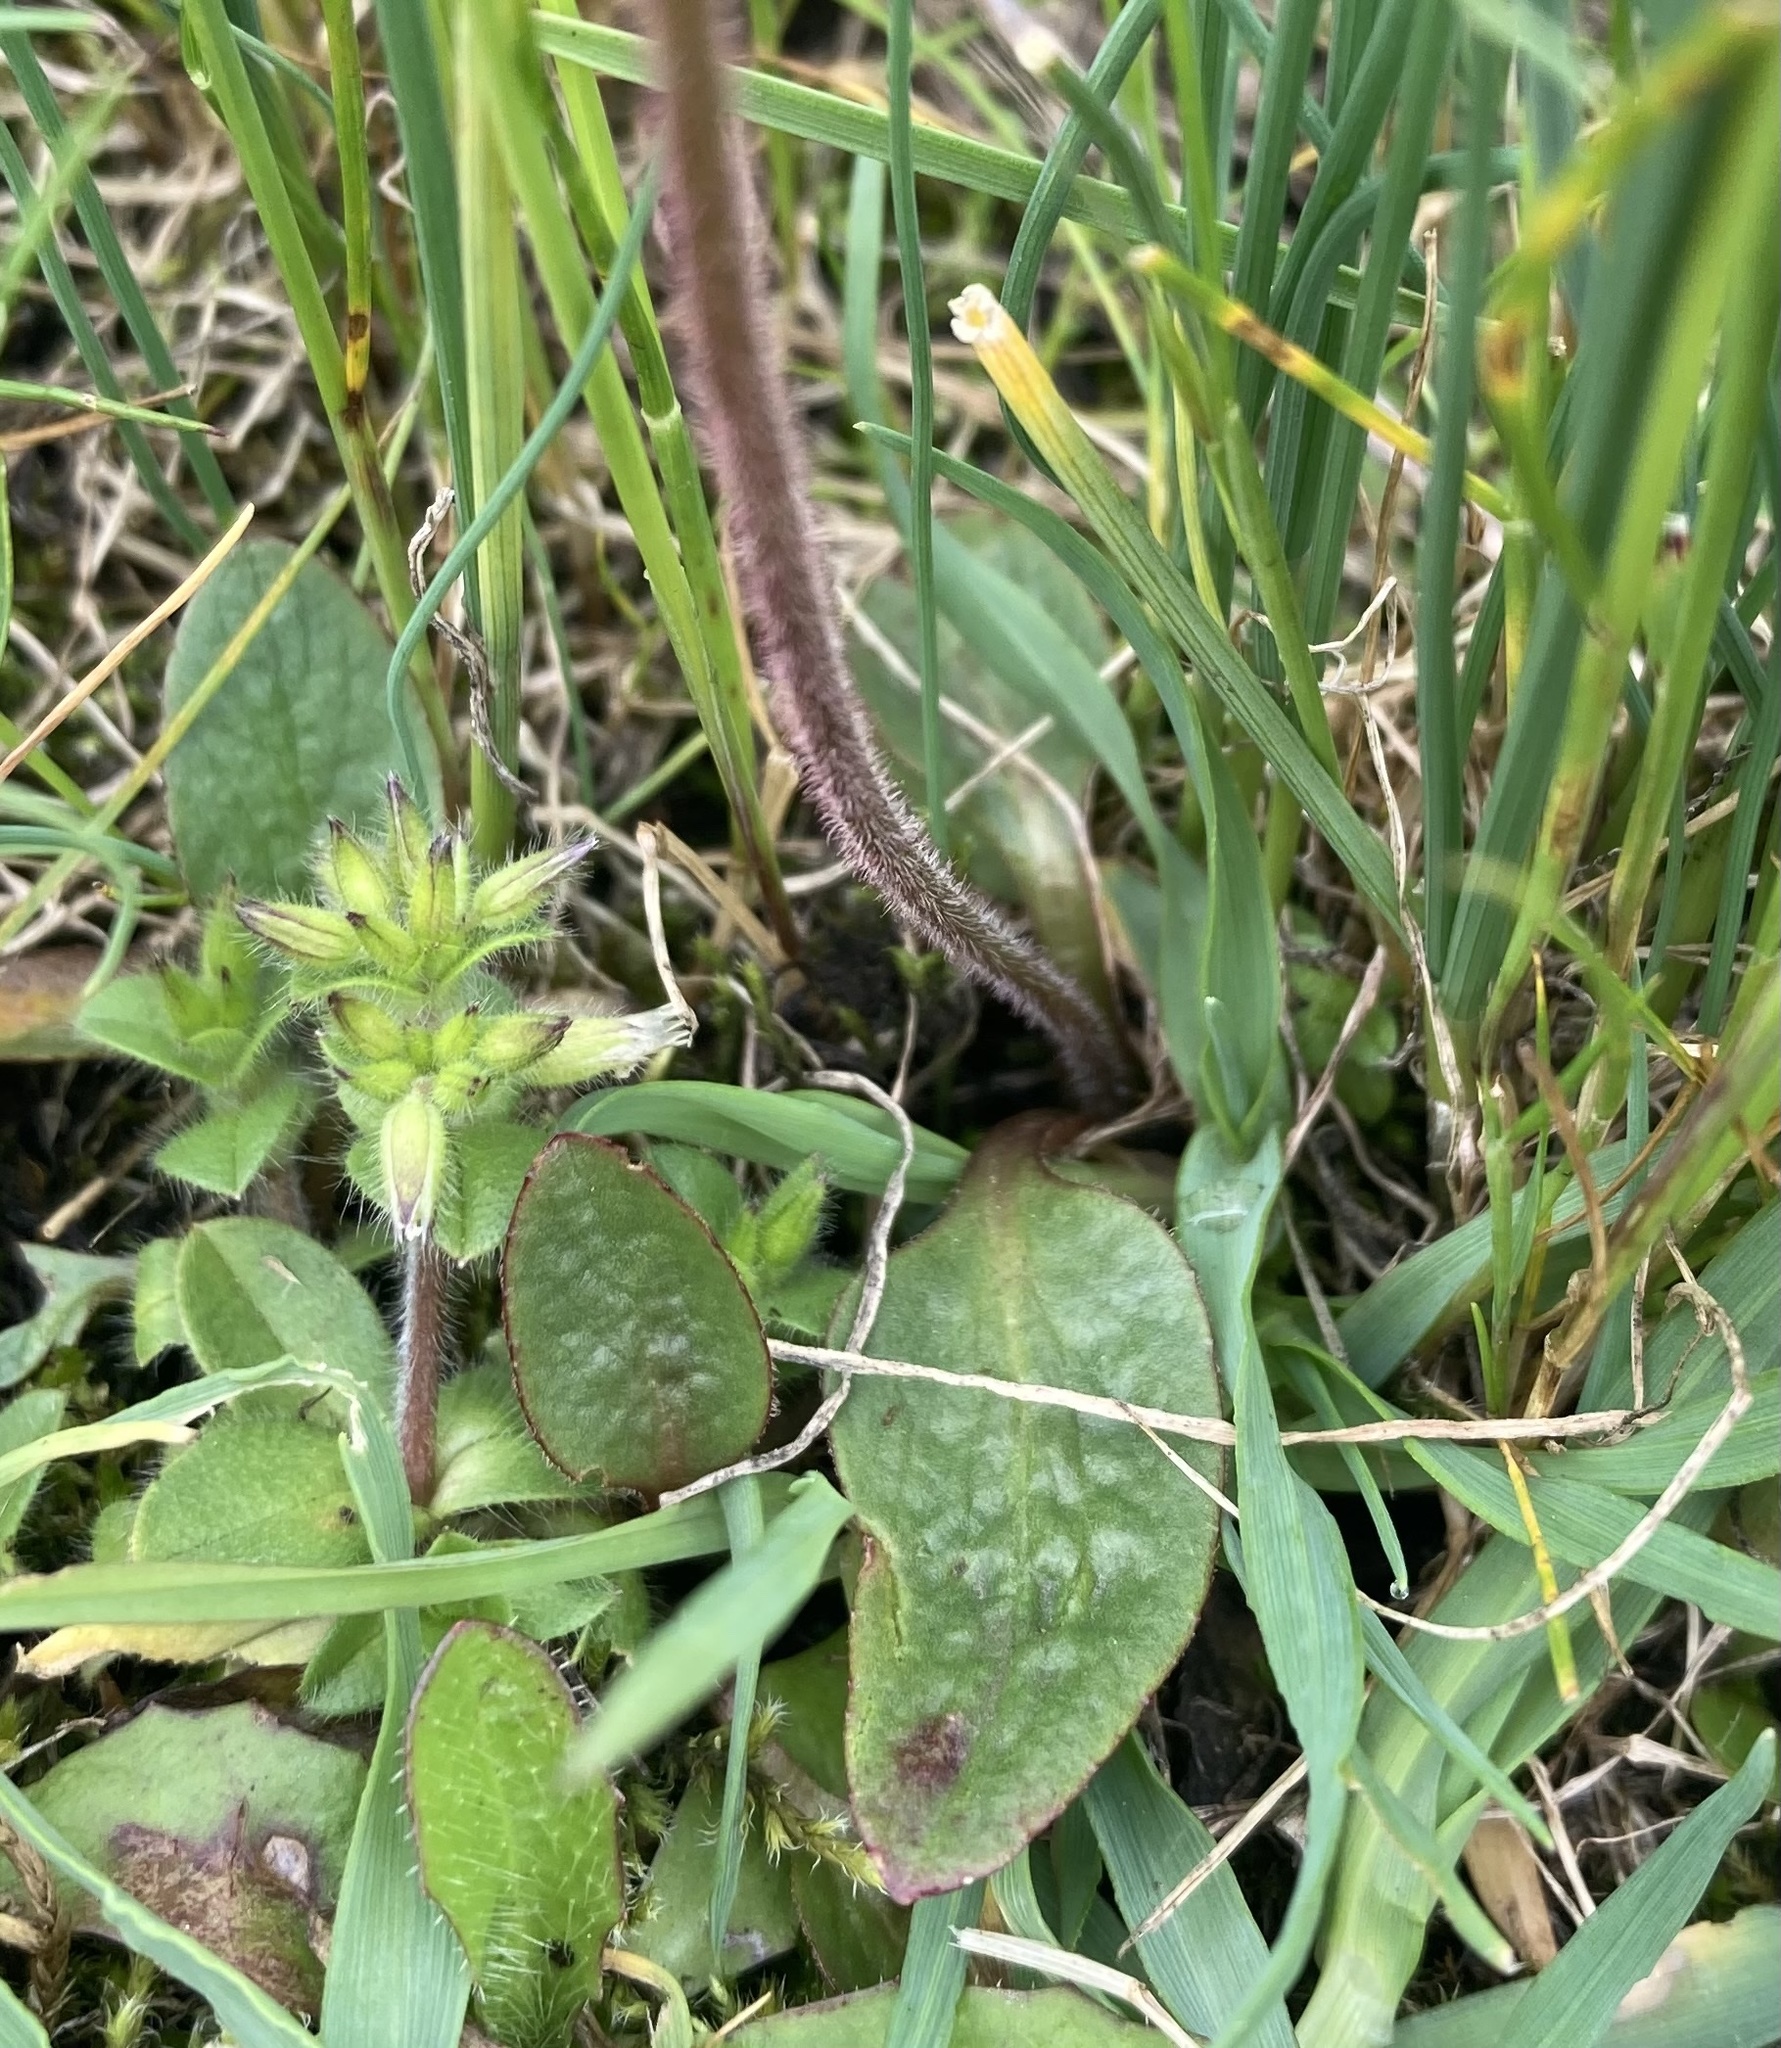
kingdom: Plantae
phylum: Tracheophyta
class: Magnoliopsida
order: Saxifragales
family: Saxifragaceae
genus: Micranthes
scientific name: Micranthes integrifolia
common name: Wholeleaf saxifrage
